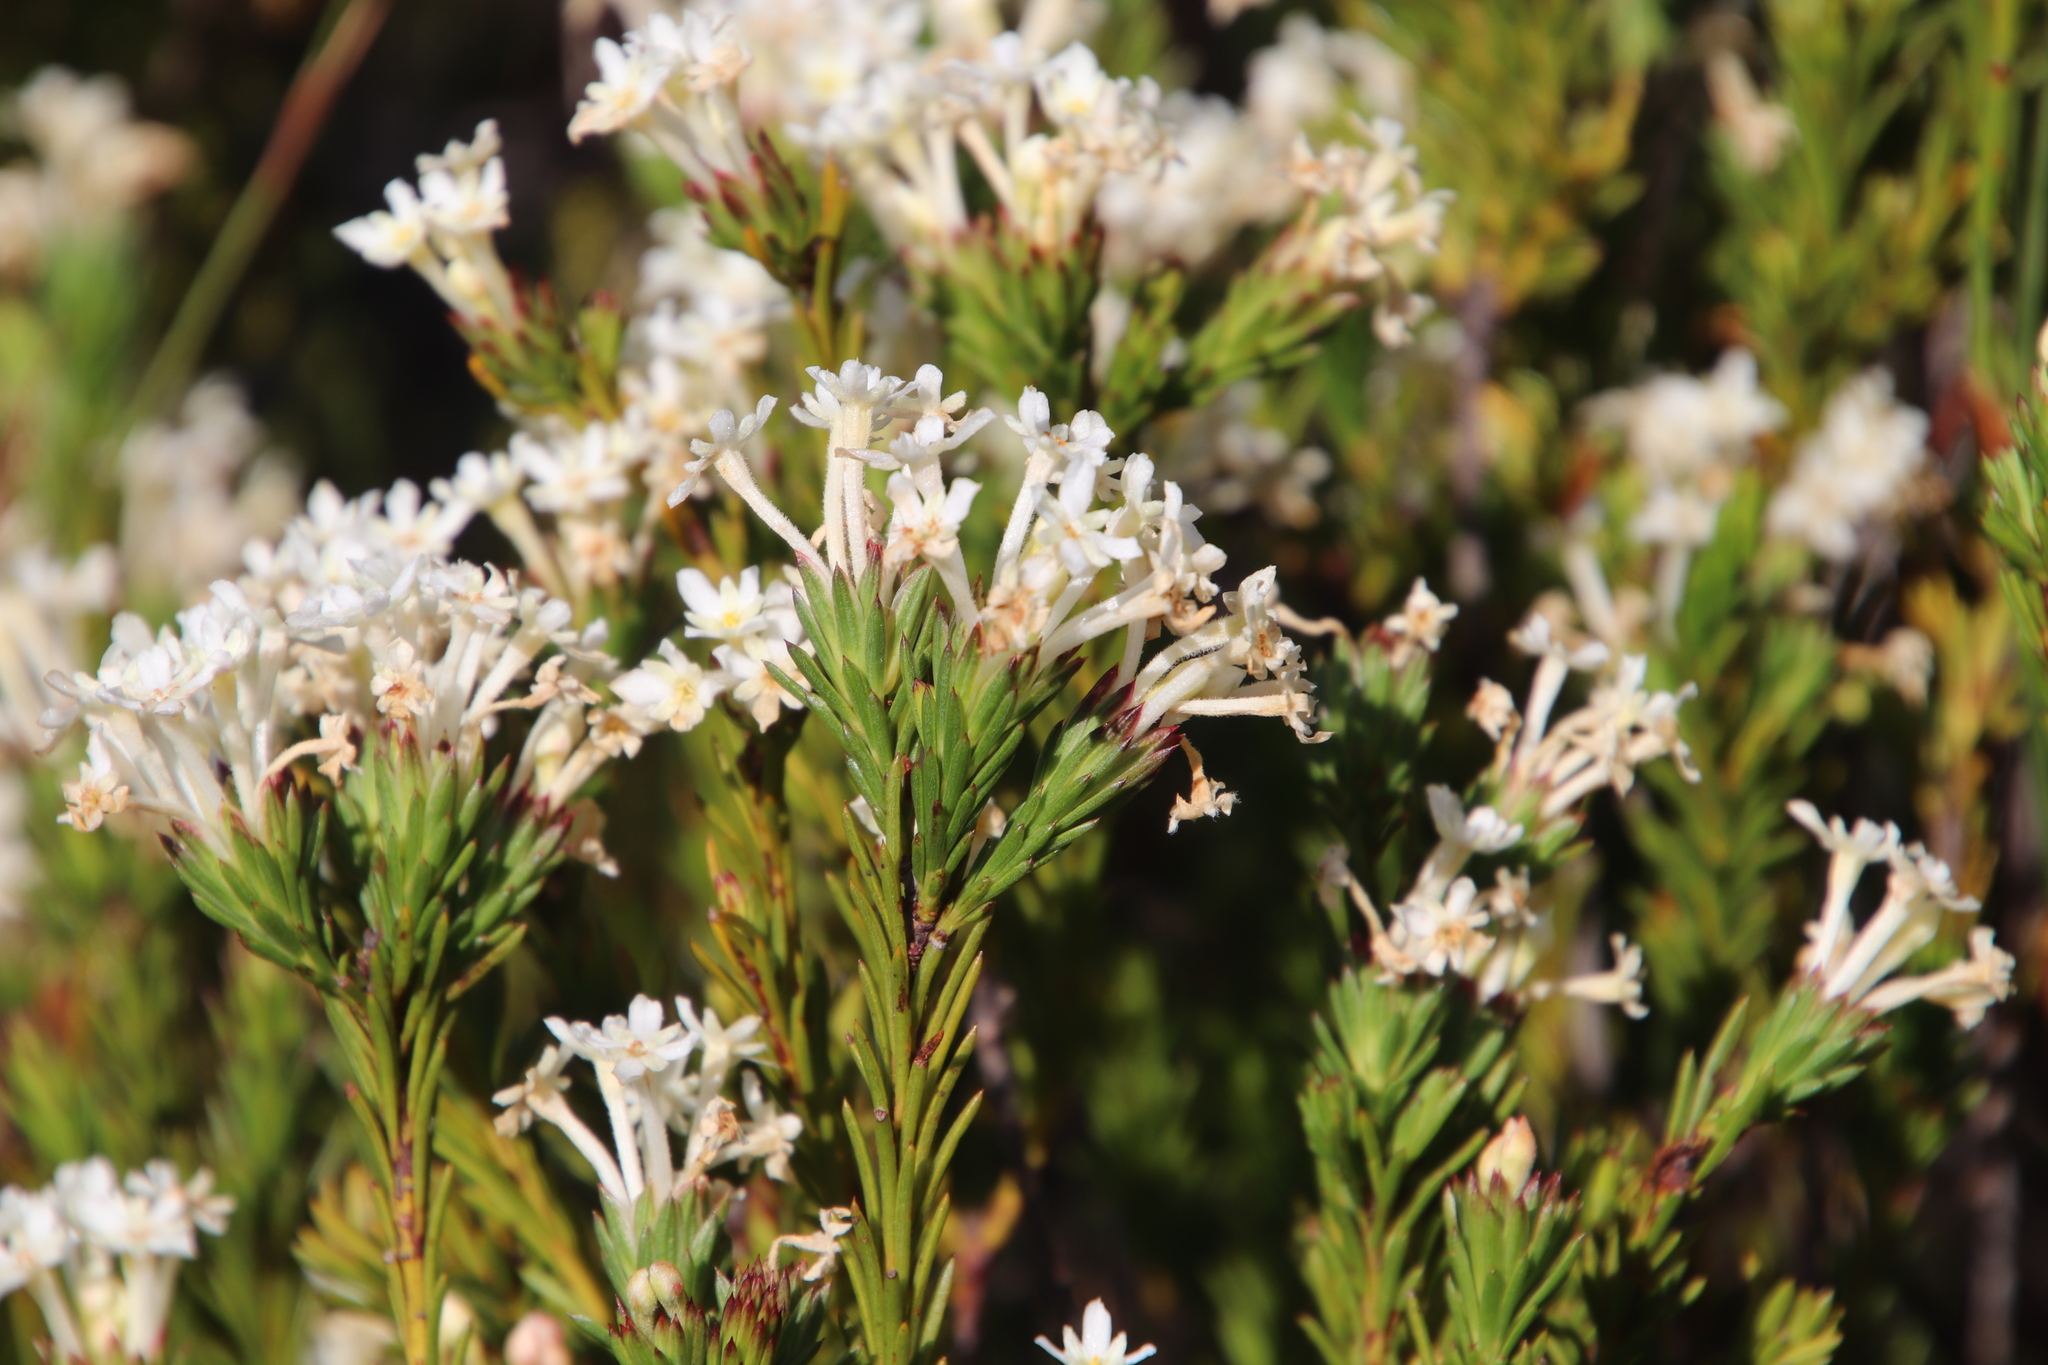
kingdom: Plantae
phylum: Tracheophyta
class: Magnoliopsida
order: Malvales
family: Thymelaeaceae
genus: Gnidia
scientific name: Gnidia pinifolia
